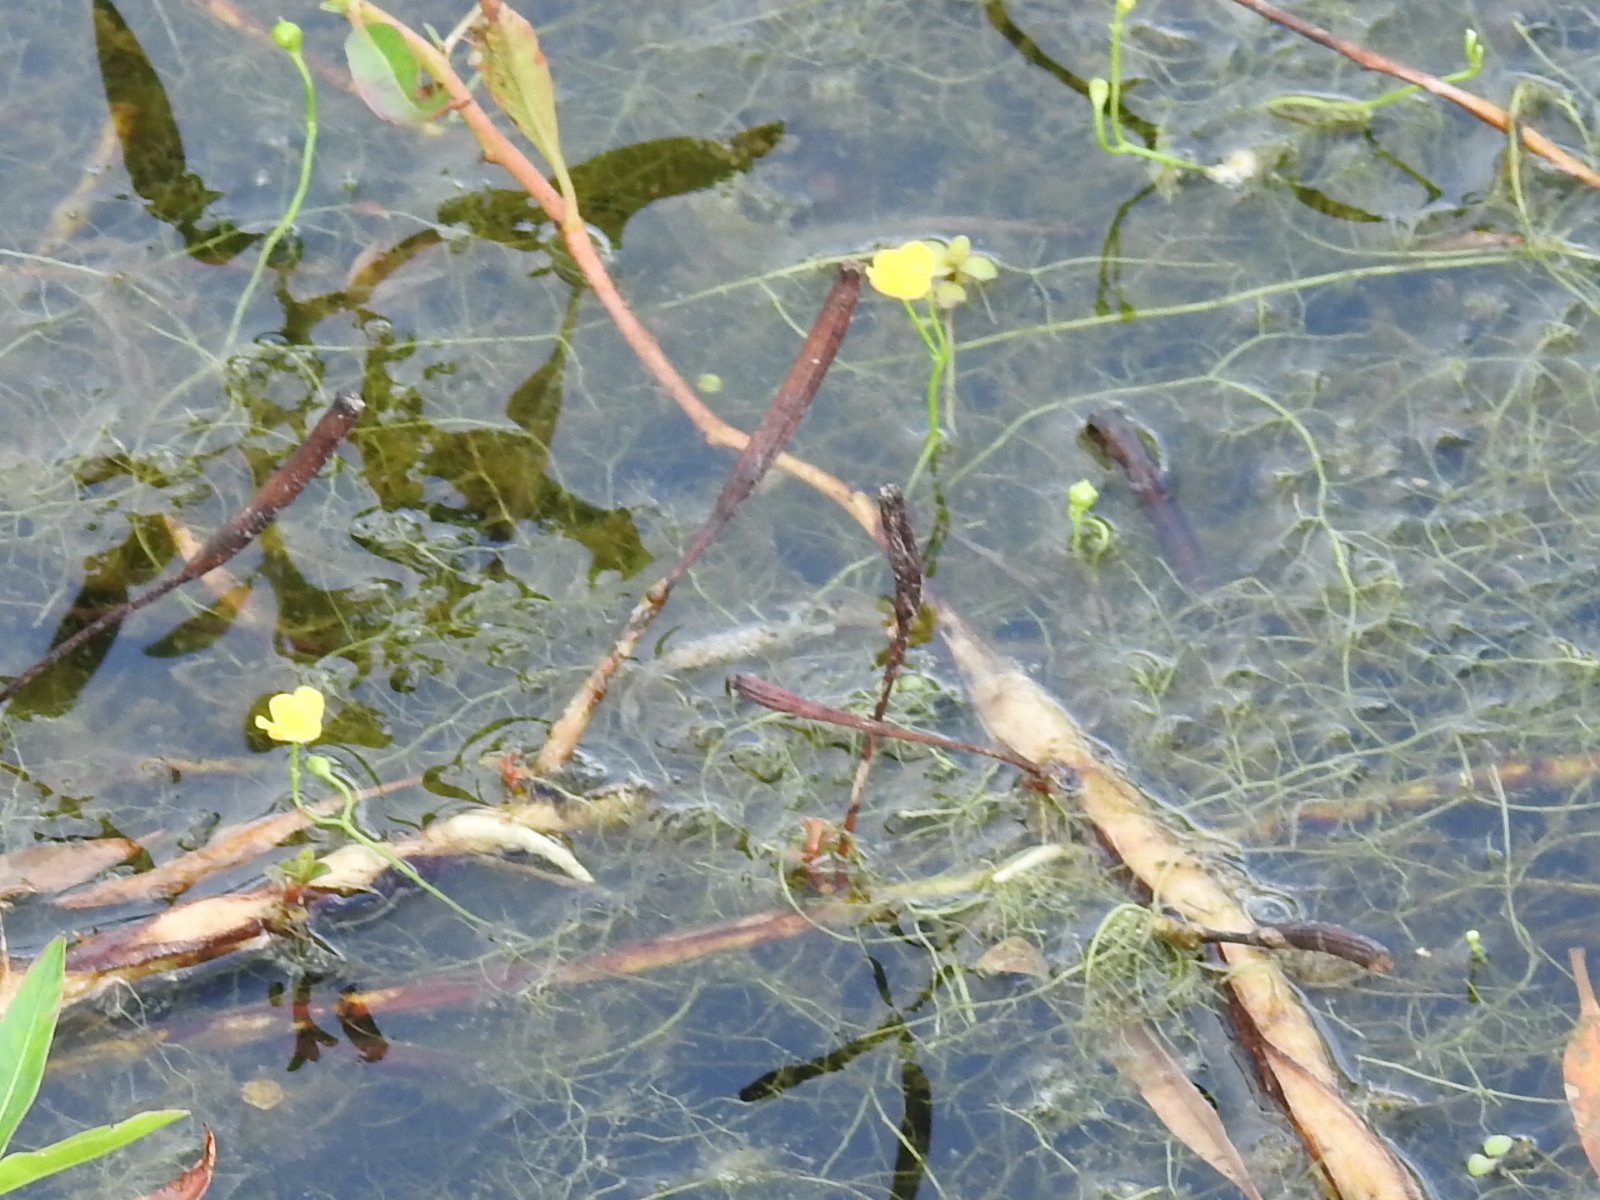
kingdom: Plantae
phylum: Tracheophyta
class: Magnoliopsida
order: Lamiales
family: Lentibulariaceae
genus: Utricularia
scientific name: Utricularia gibba
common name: Humped bladderwort
